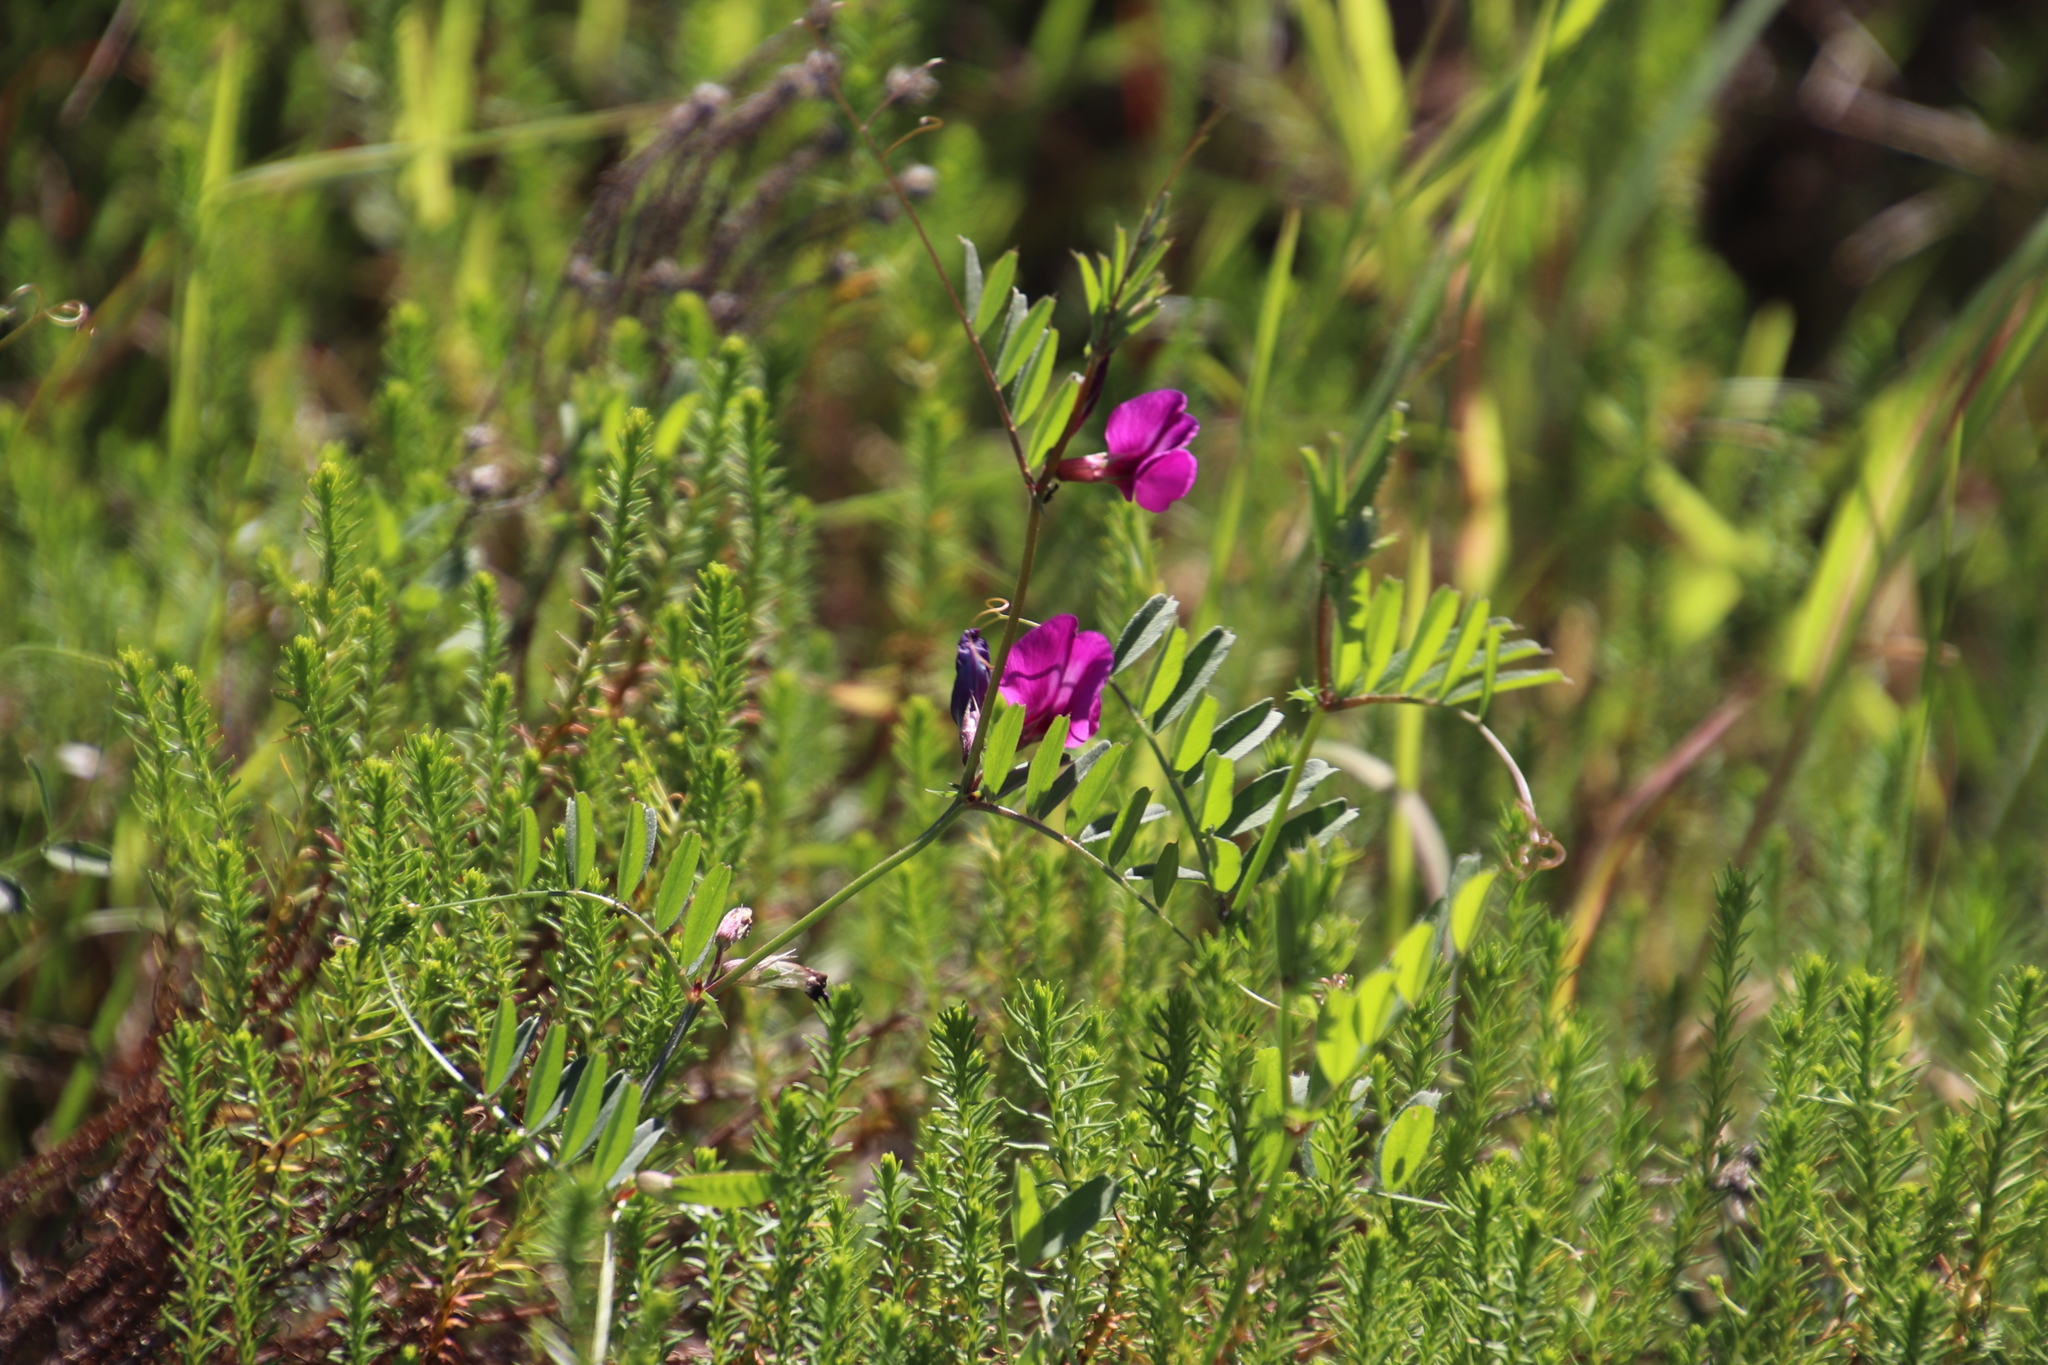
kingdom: Plantae
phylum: Tracheophyta
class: Magnoliopsida
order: Fabales
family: Fabaceae
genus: Vicia
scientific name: Vicia sativa
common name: Garden vetch
